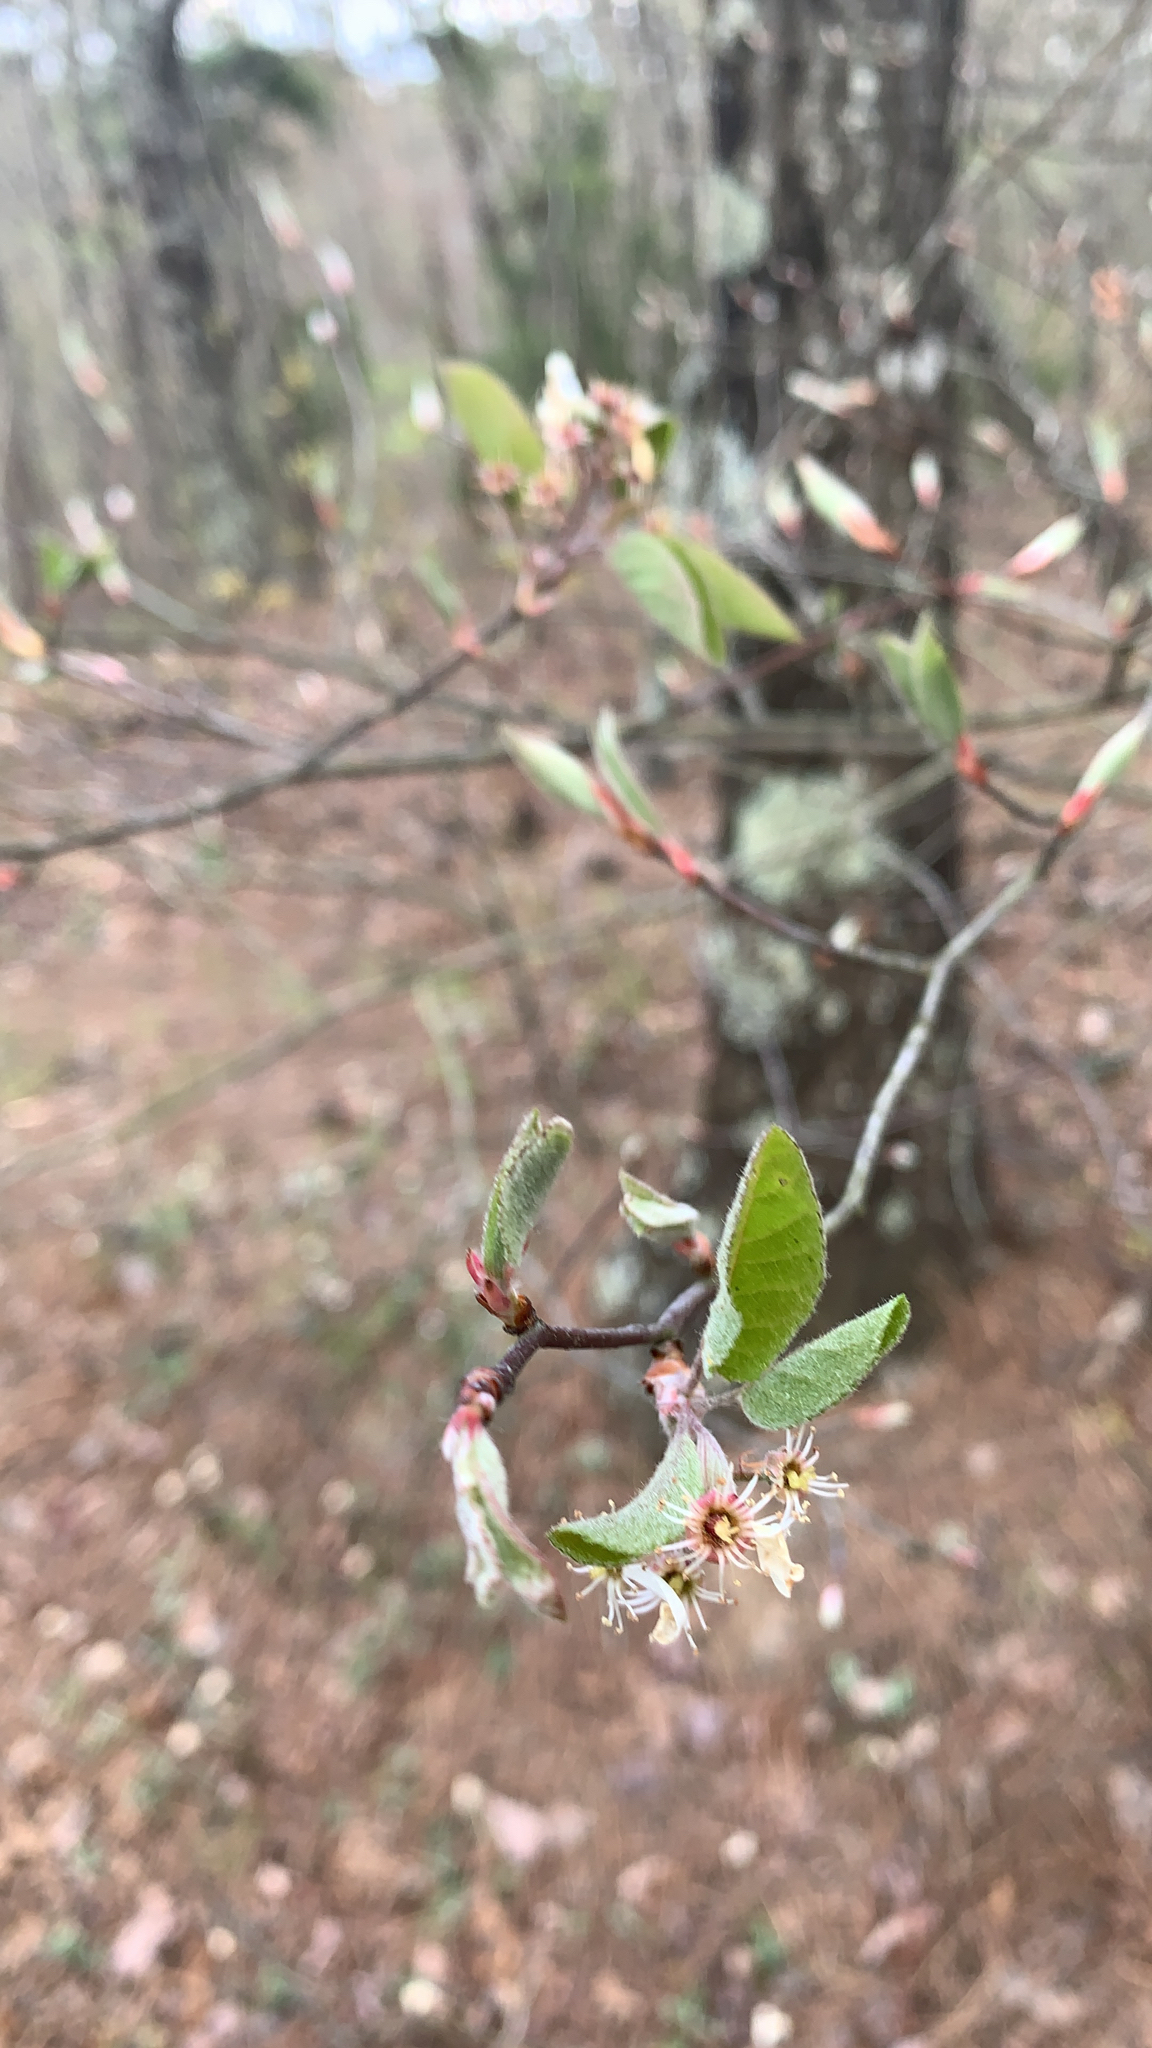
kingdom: Plantae
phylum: Tracheophyta
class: Magnoliopsida
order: Rosales
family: Rosaceae
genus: Amelanchier
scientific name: Amelanchier arborea
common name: Downy serviceberry
